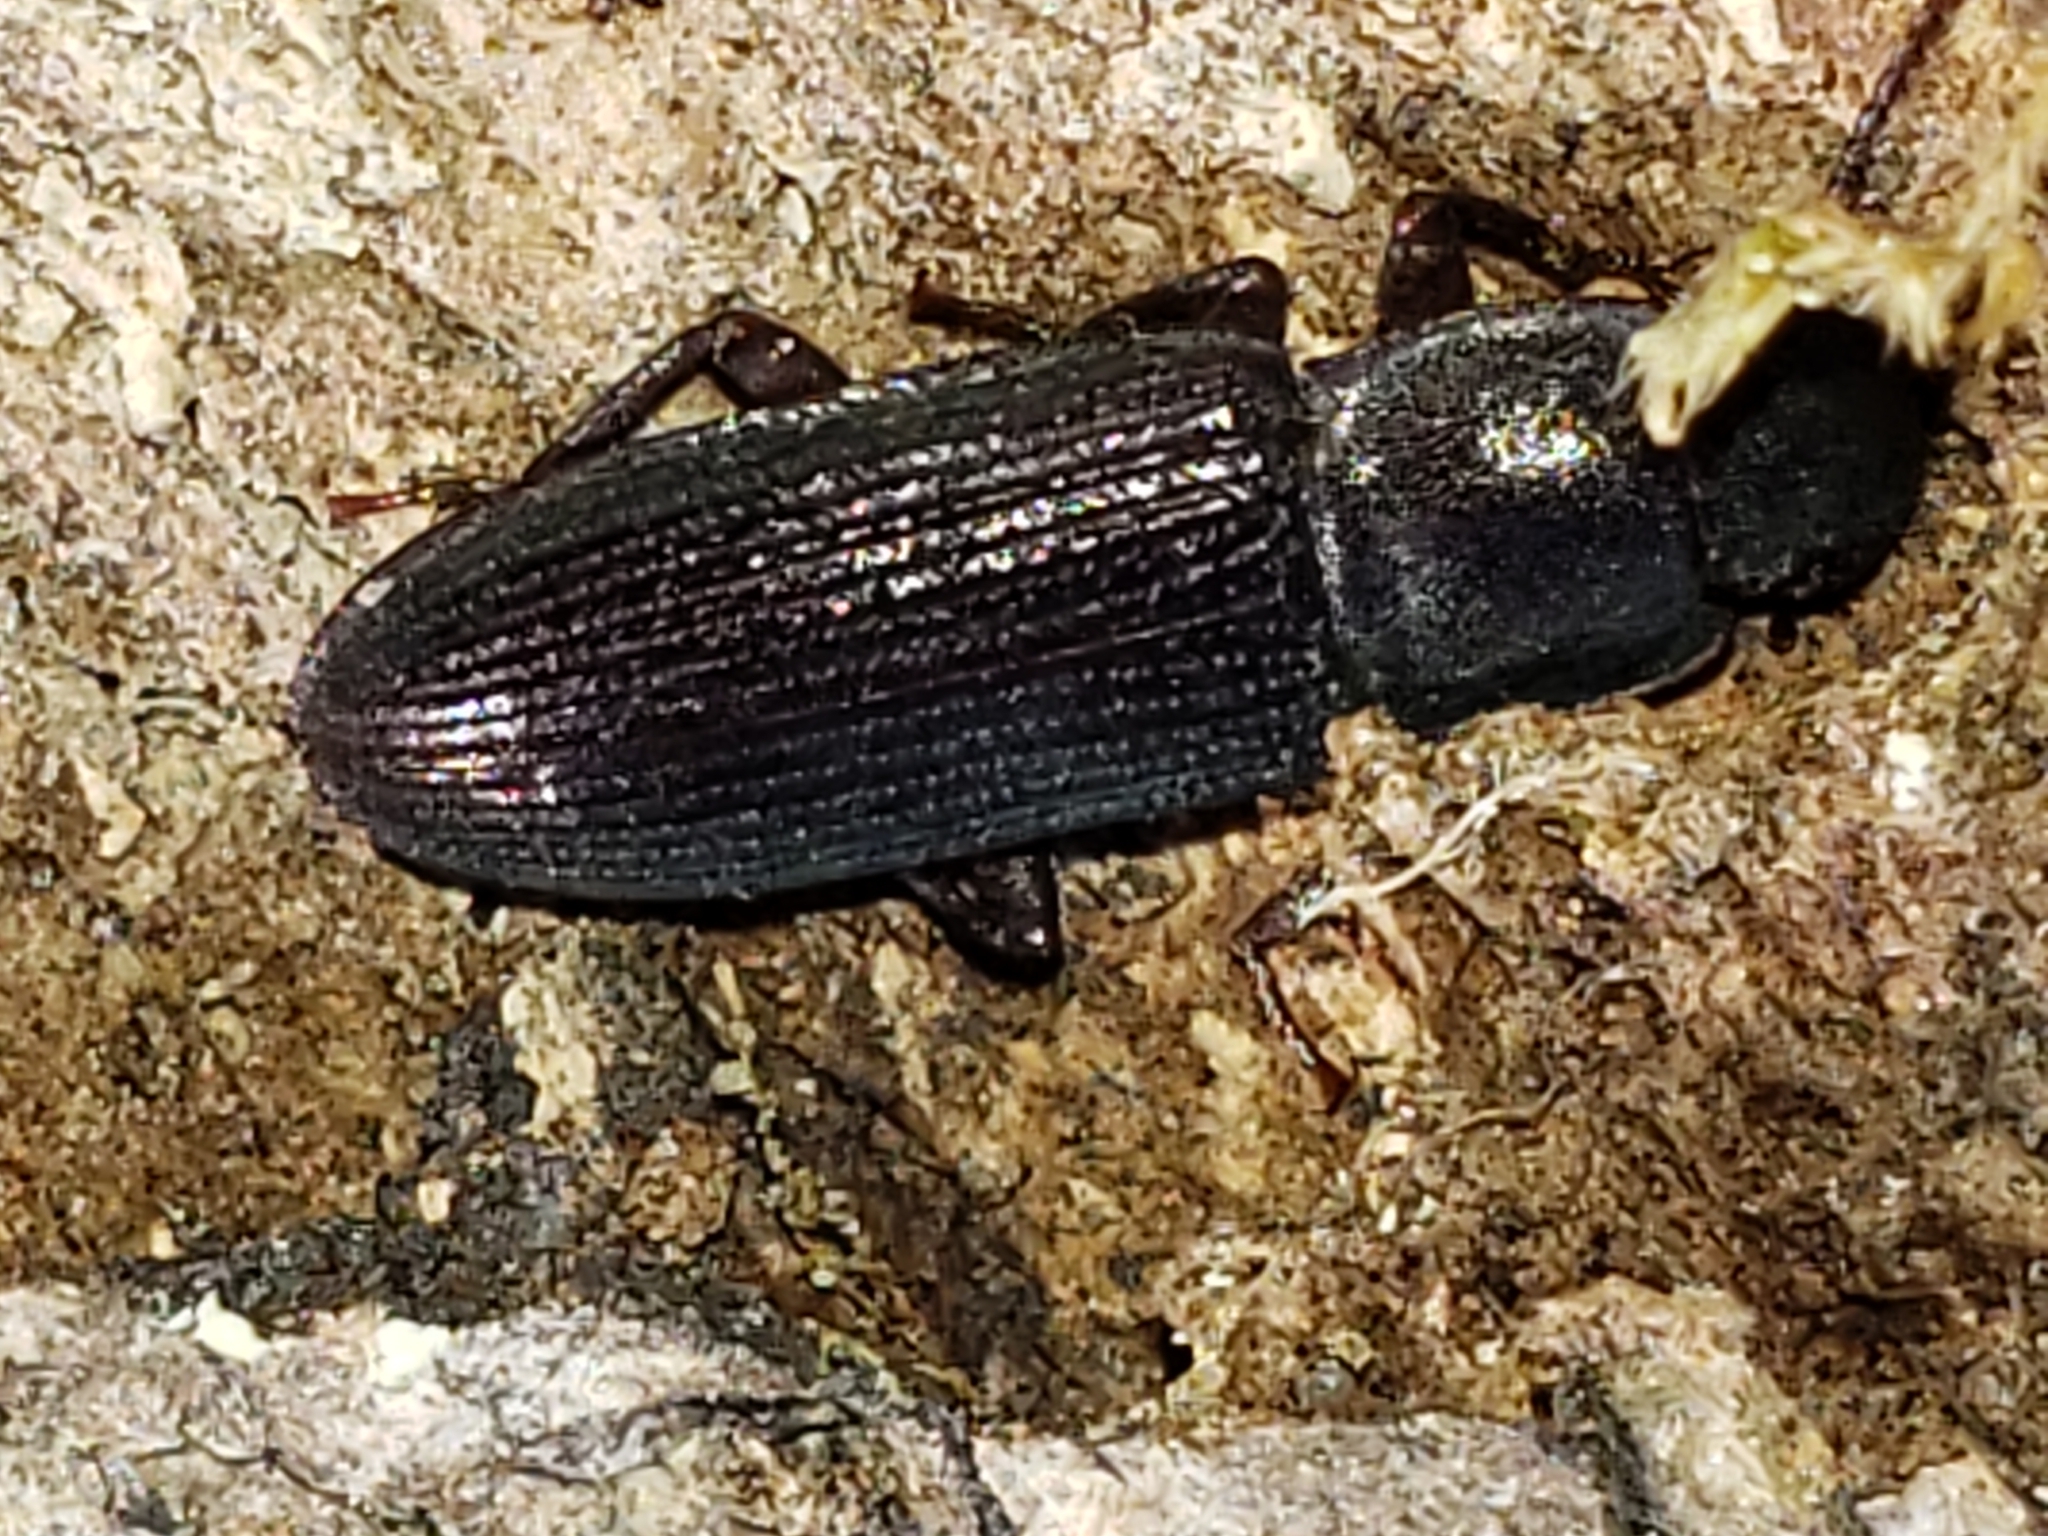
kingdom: Animalia
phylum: Arthropoda
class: Insecta
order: Coleoptera
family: Tenebrionidae
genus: Idiobates
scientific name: Idiobates castaneus
